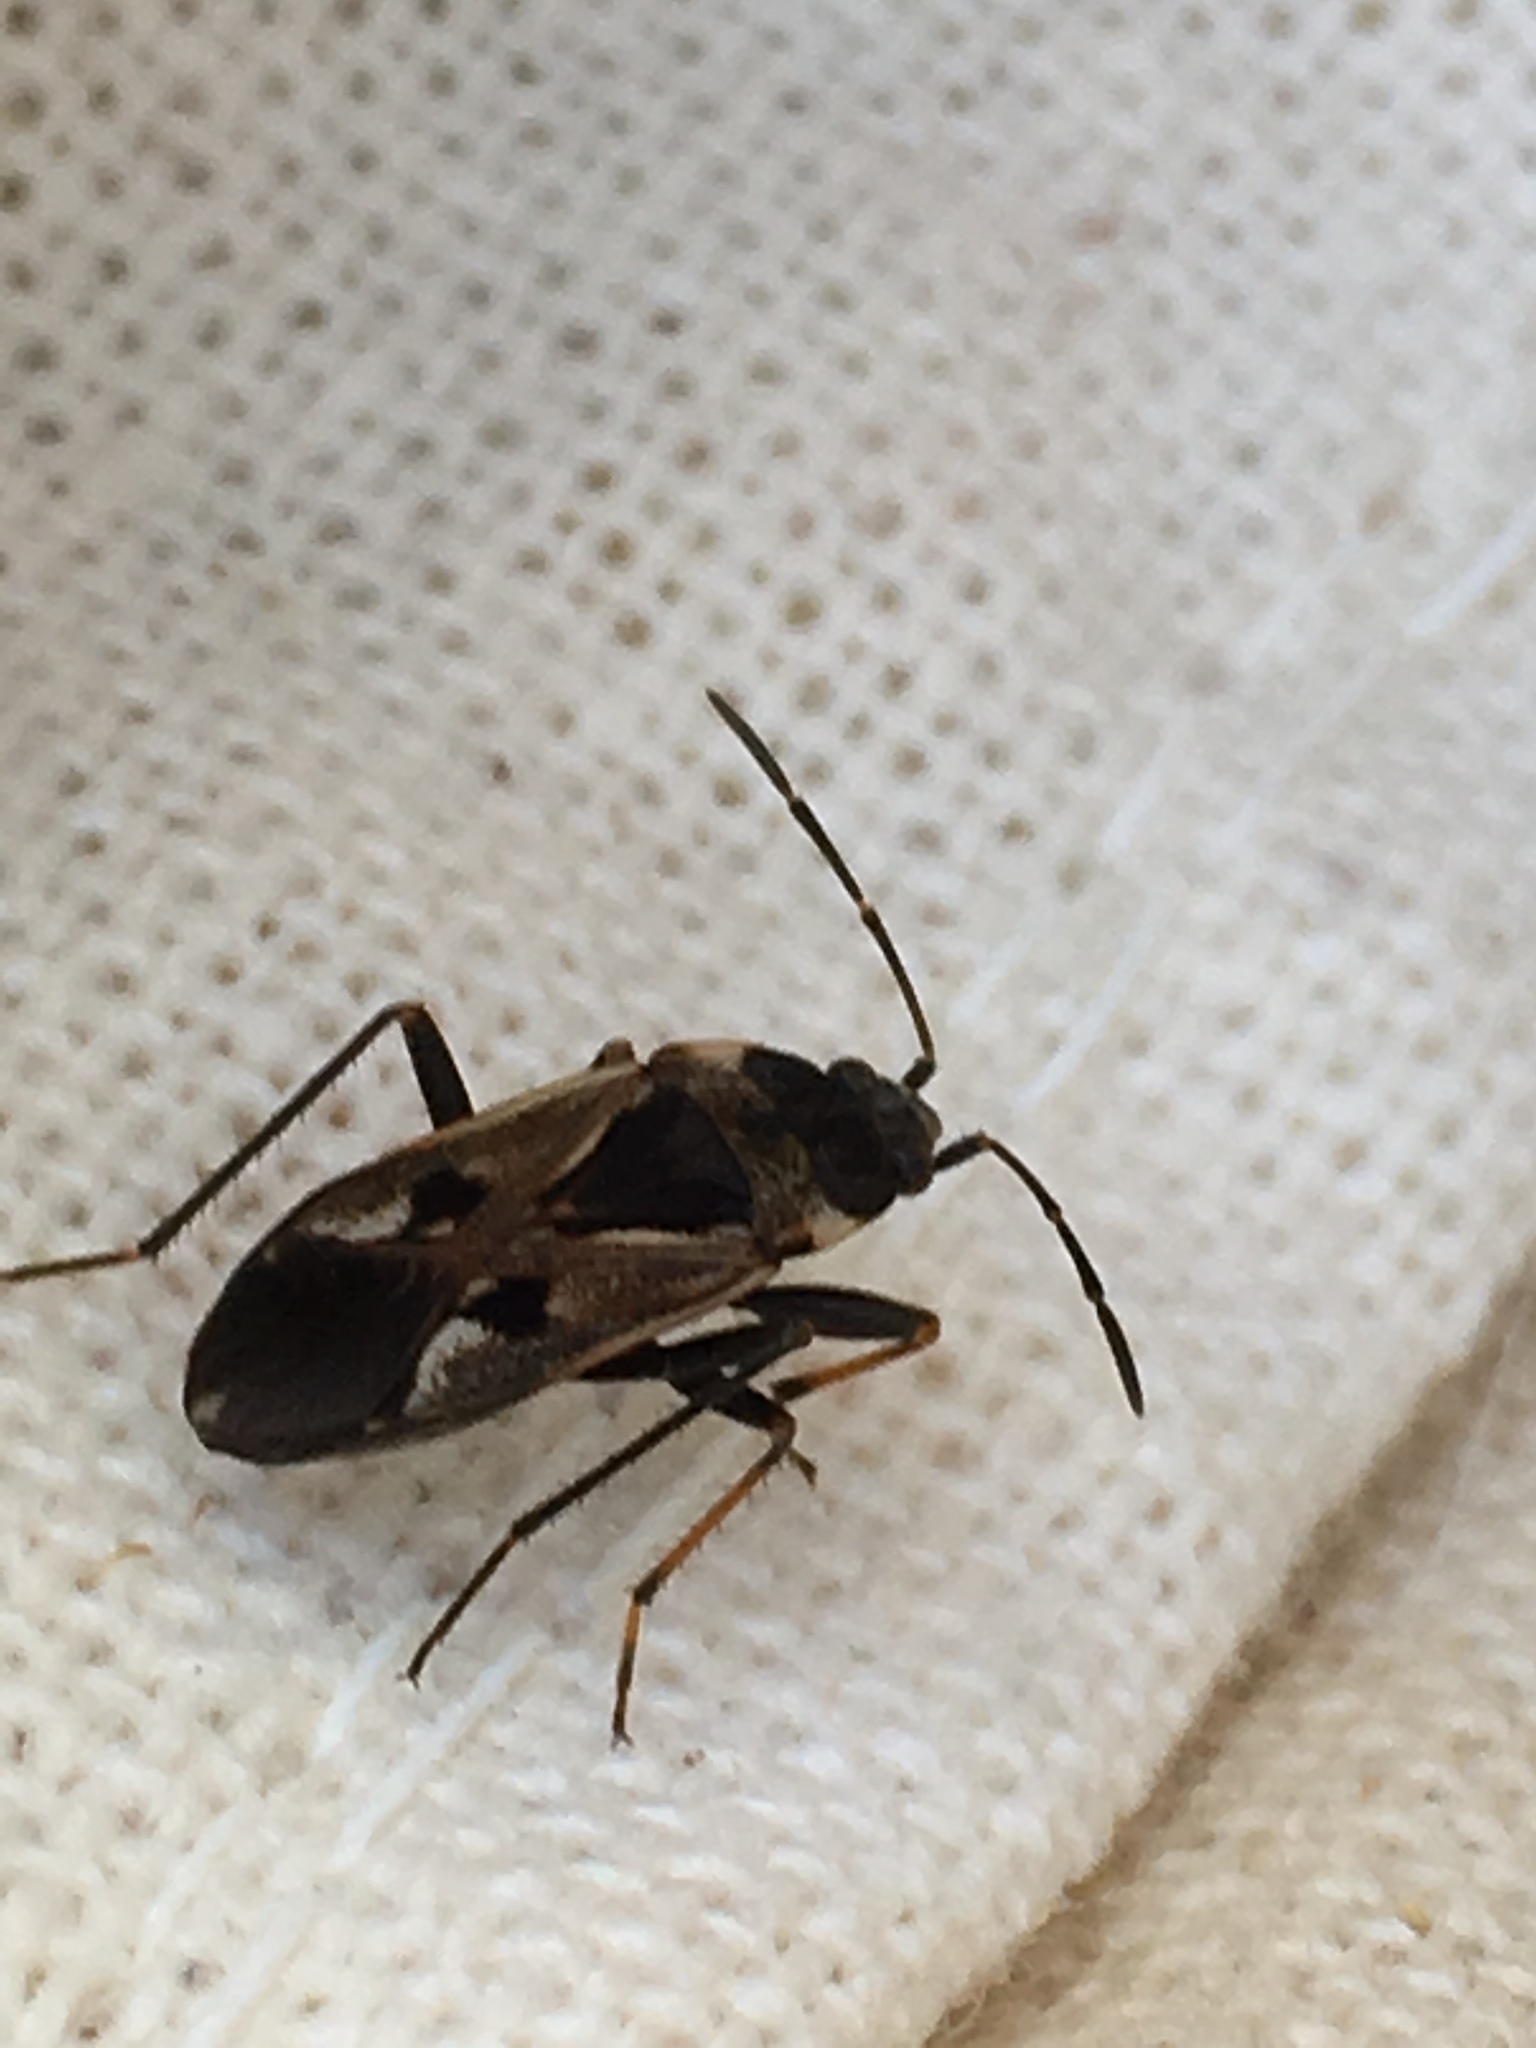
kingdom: Animalia
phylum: Arthropoda
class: Insecta
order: Hemiptera
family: Rhyparochromidae
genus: Rhyparochromus
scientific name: Rhyparochromus vulgaris
